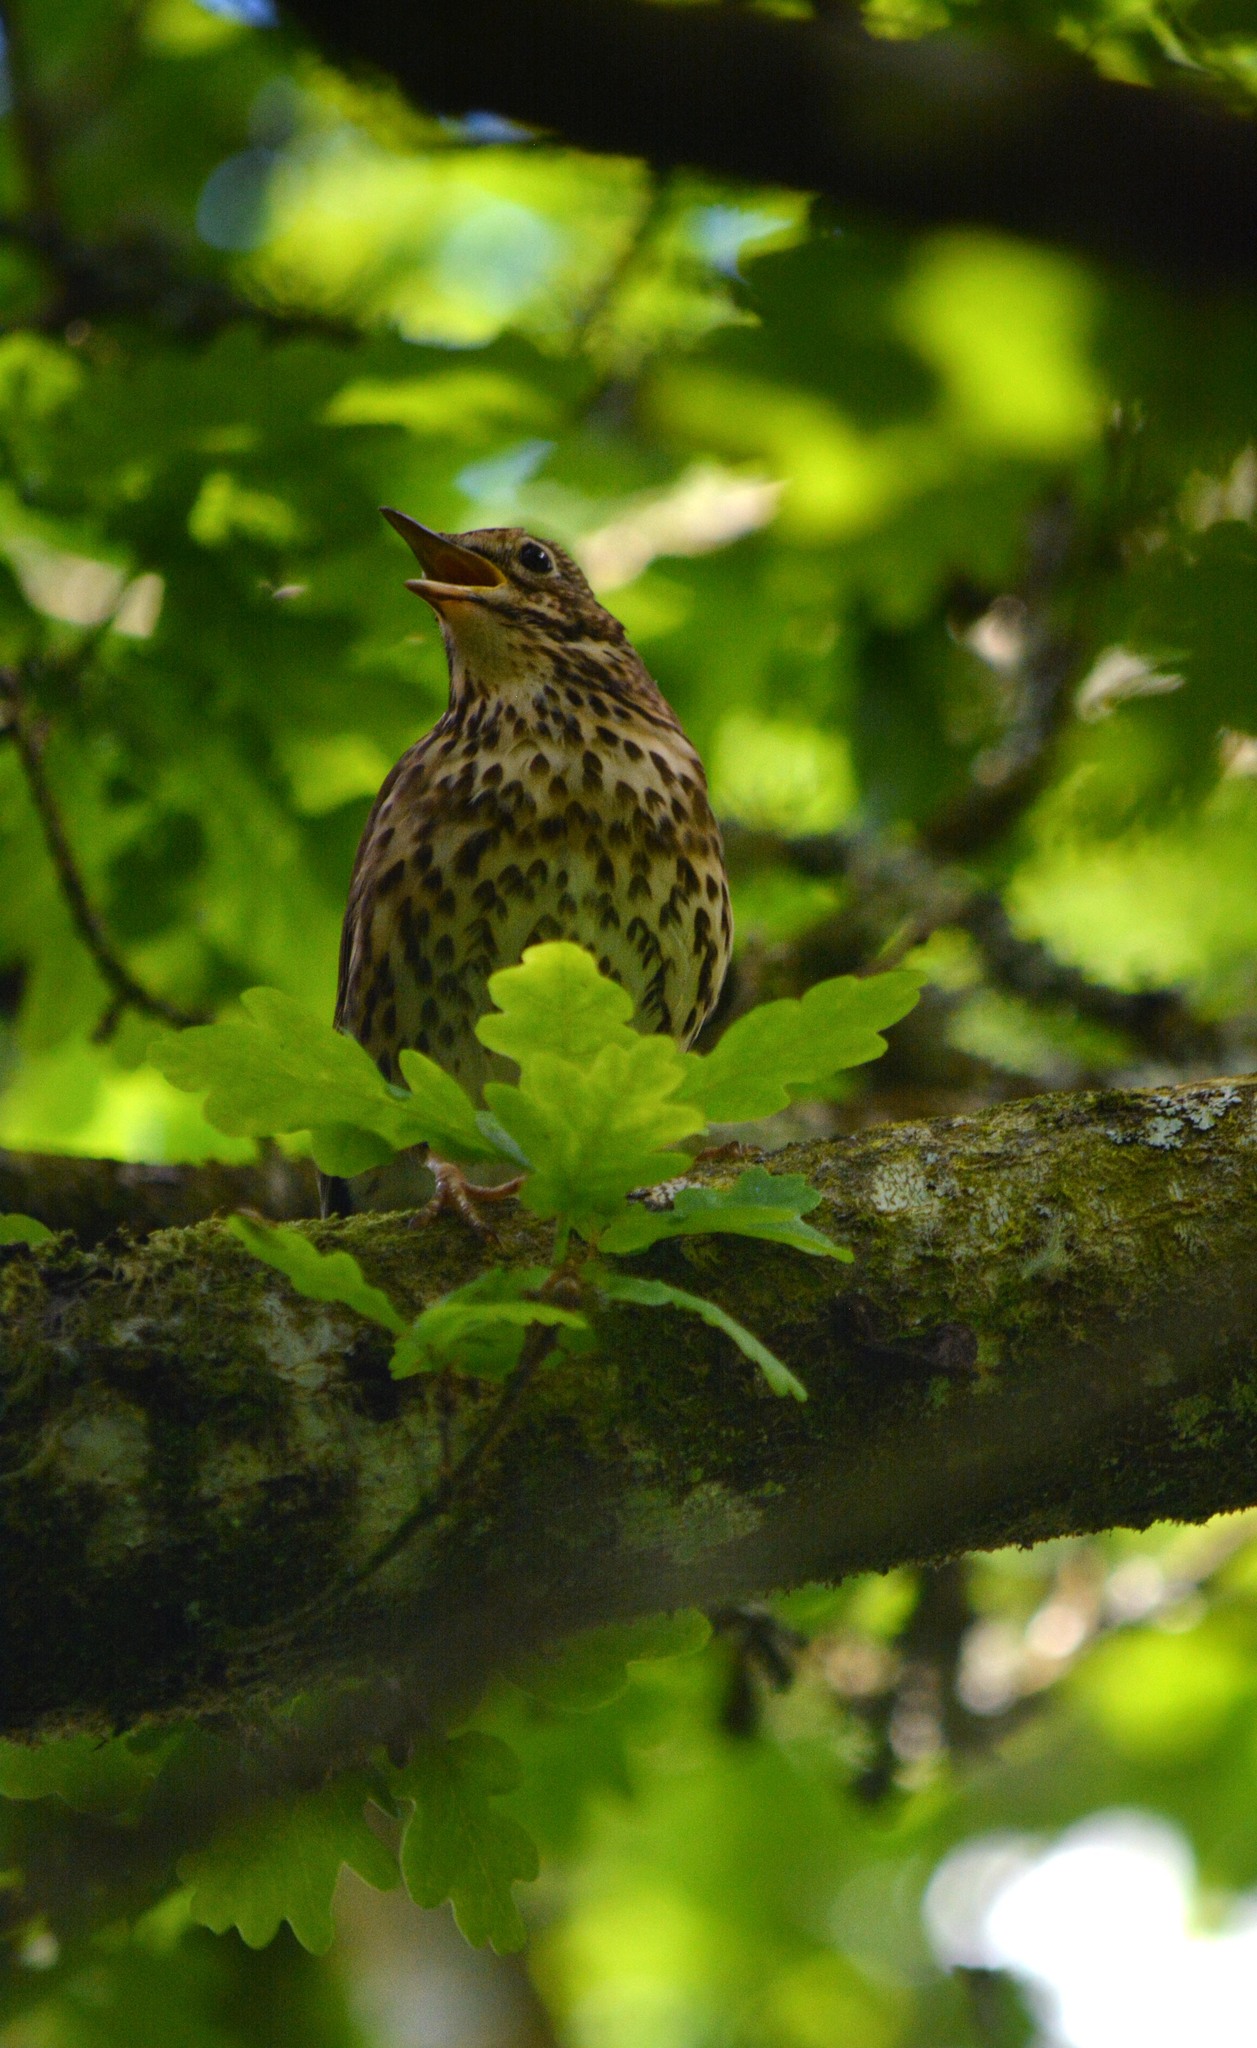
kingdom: Animalia
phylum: Chordata
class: Aves
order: Passeriformes
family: Turdidae
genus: Turdus
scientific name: Turdus philomelos
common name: Song thrush
